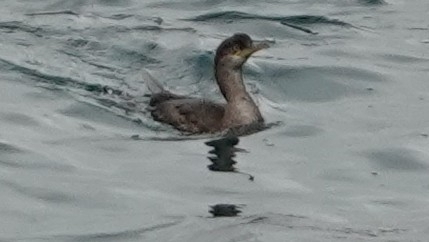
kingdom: Animalia
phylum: Chordata
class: Aves
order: Suliformes
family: Phalacrocoracidae
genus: Phalacrocorax
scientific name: Phalacrocorax aristotelis
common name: European shag
